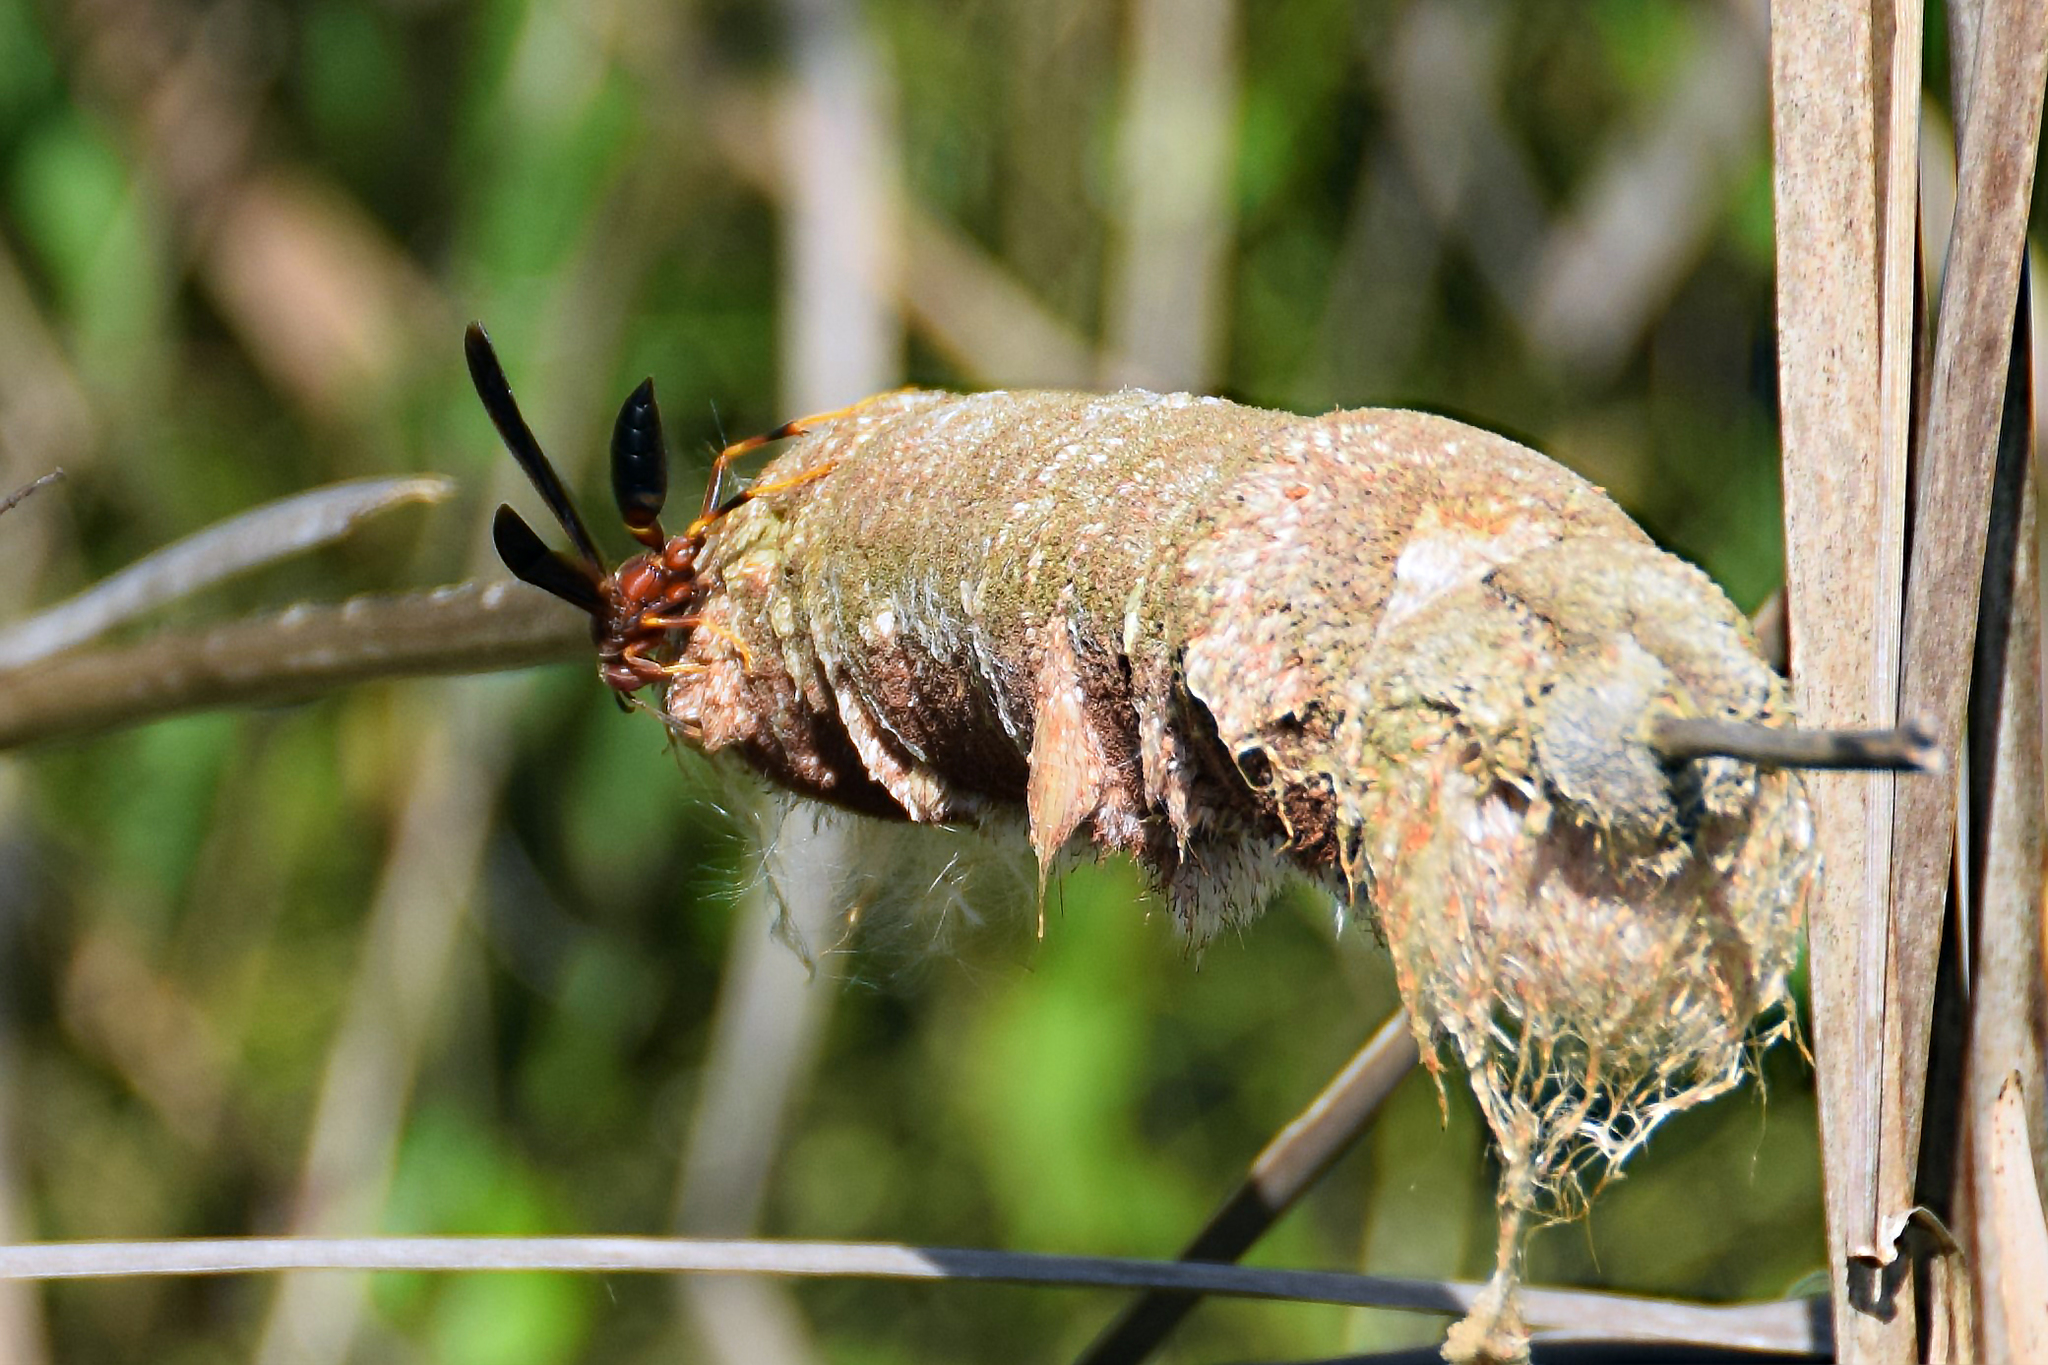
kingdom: Animalia
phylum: Arthropoda
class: Insecta
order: Hymenoptera
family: Eumenidae
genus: Polistes
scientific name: Polistes annularis
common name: Ringed paper wasp
